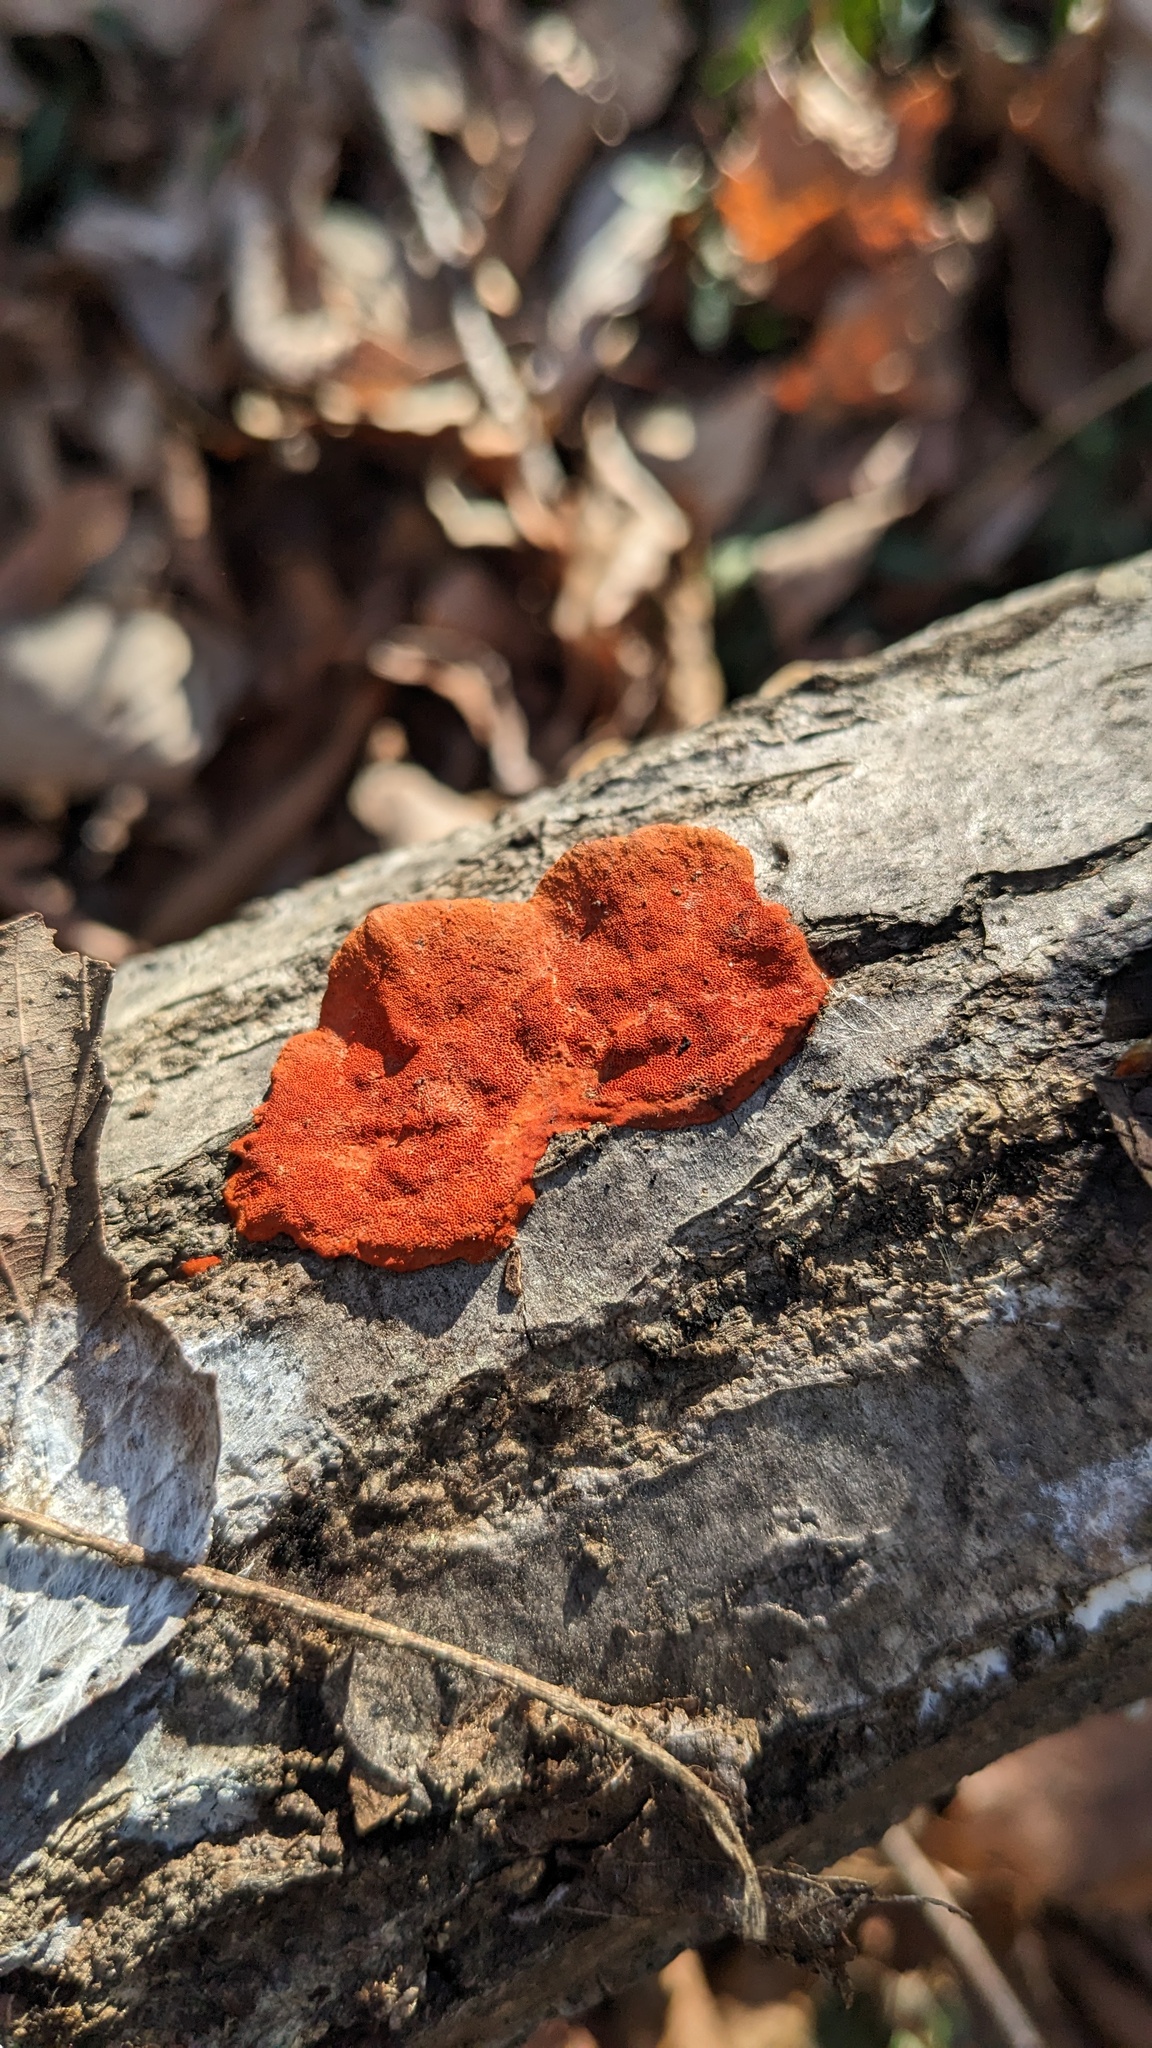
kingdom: Fungi
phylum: Basidiomycota
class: Agaricomycetes
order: Polyporales
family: Polyporaceae
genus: Trametes
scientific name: Trametes coccinea
